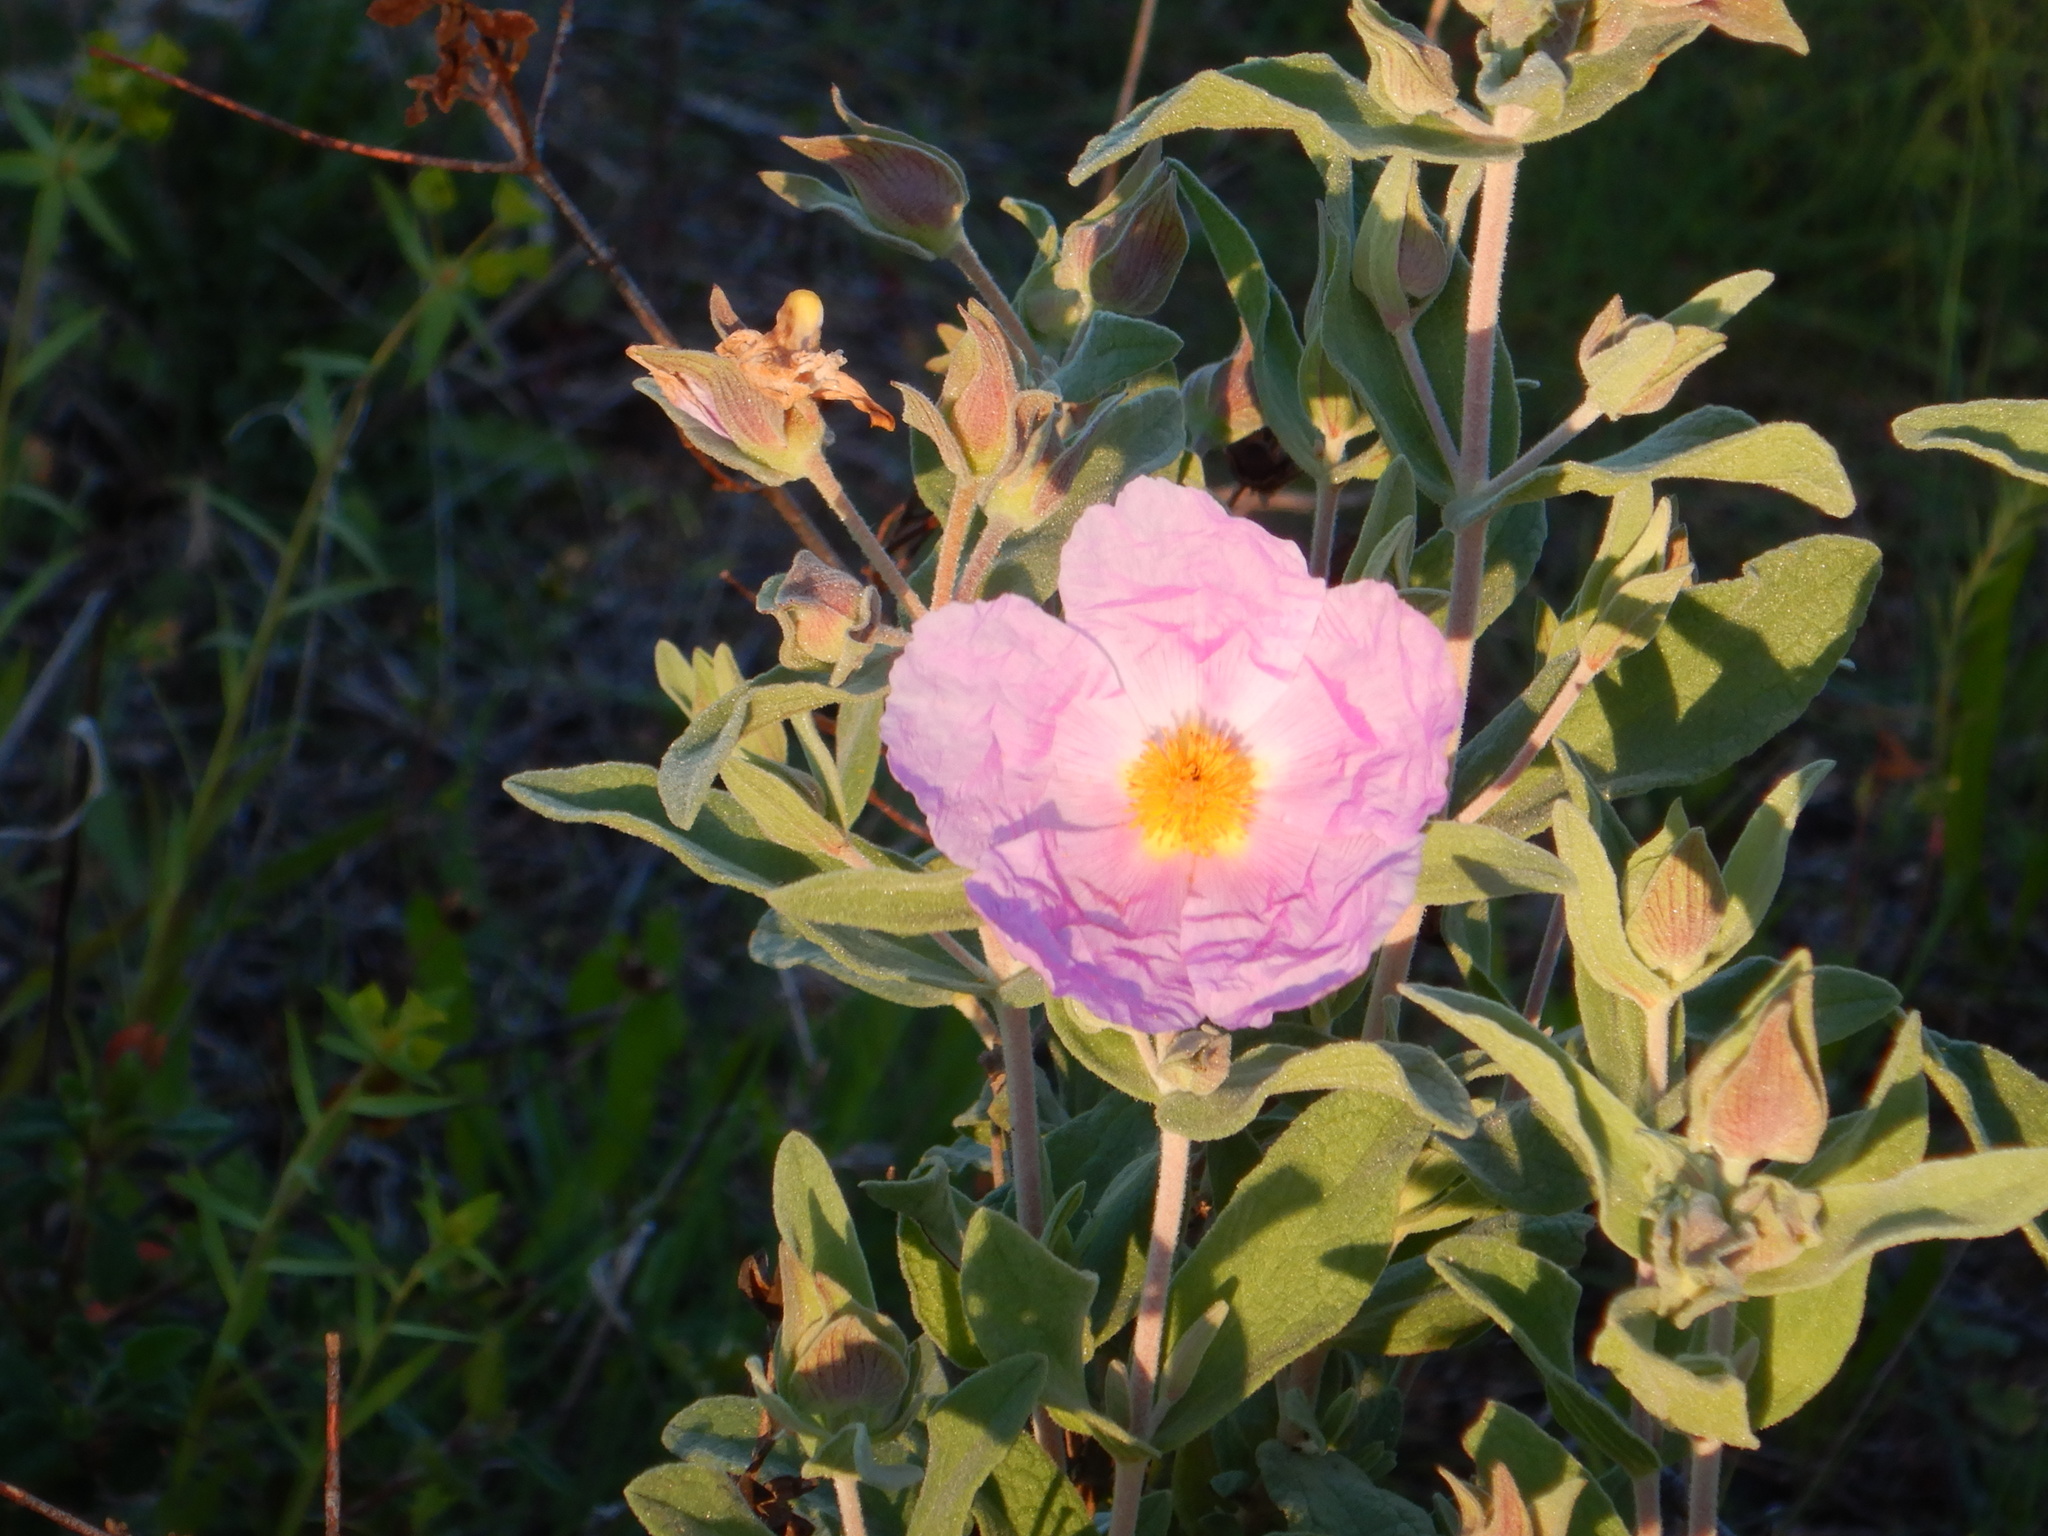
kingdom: Plantae
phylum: Tracheophyta
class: Magnoliopsida
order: Malvales
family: Cistaceae
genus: Cistus
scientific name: Cistus albidus
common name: White-leaf rock-rose
